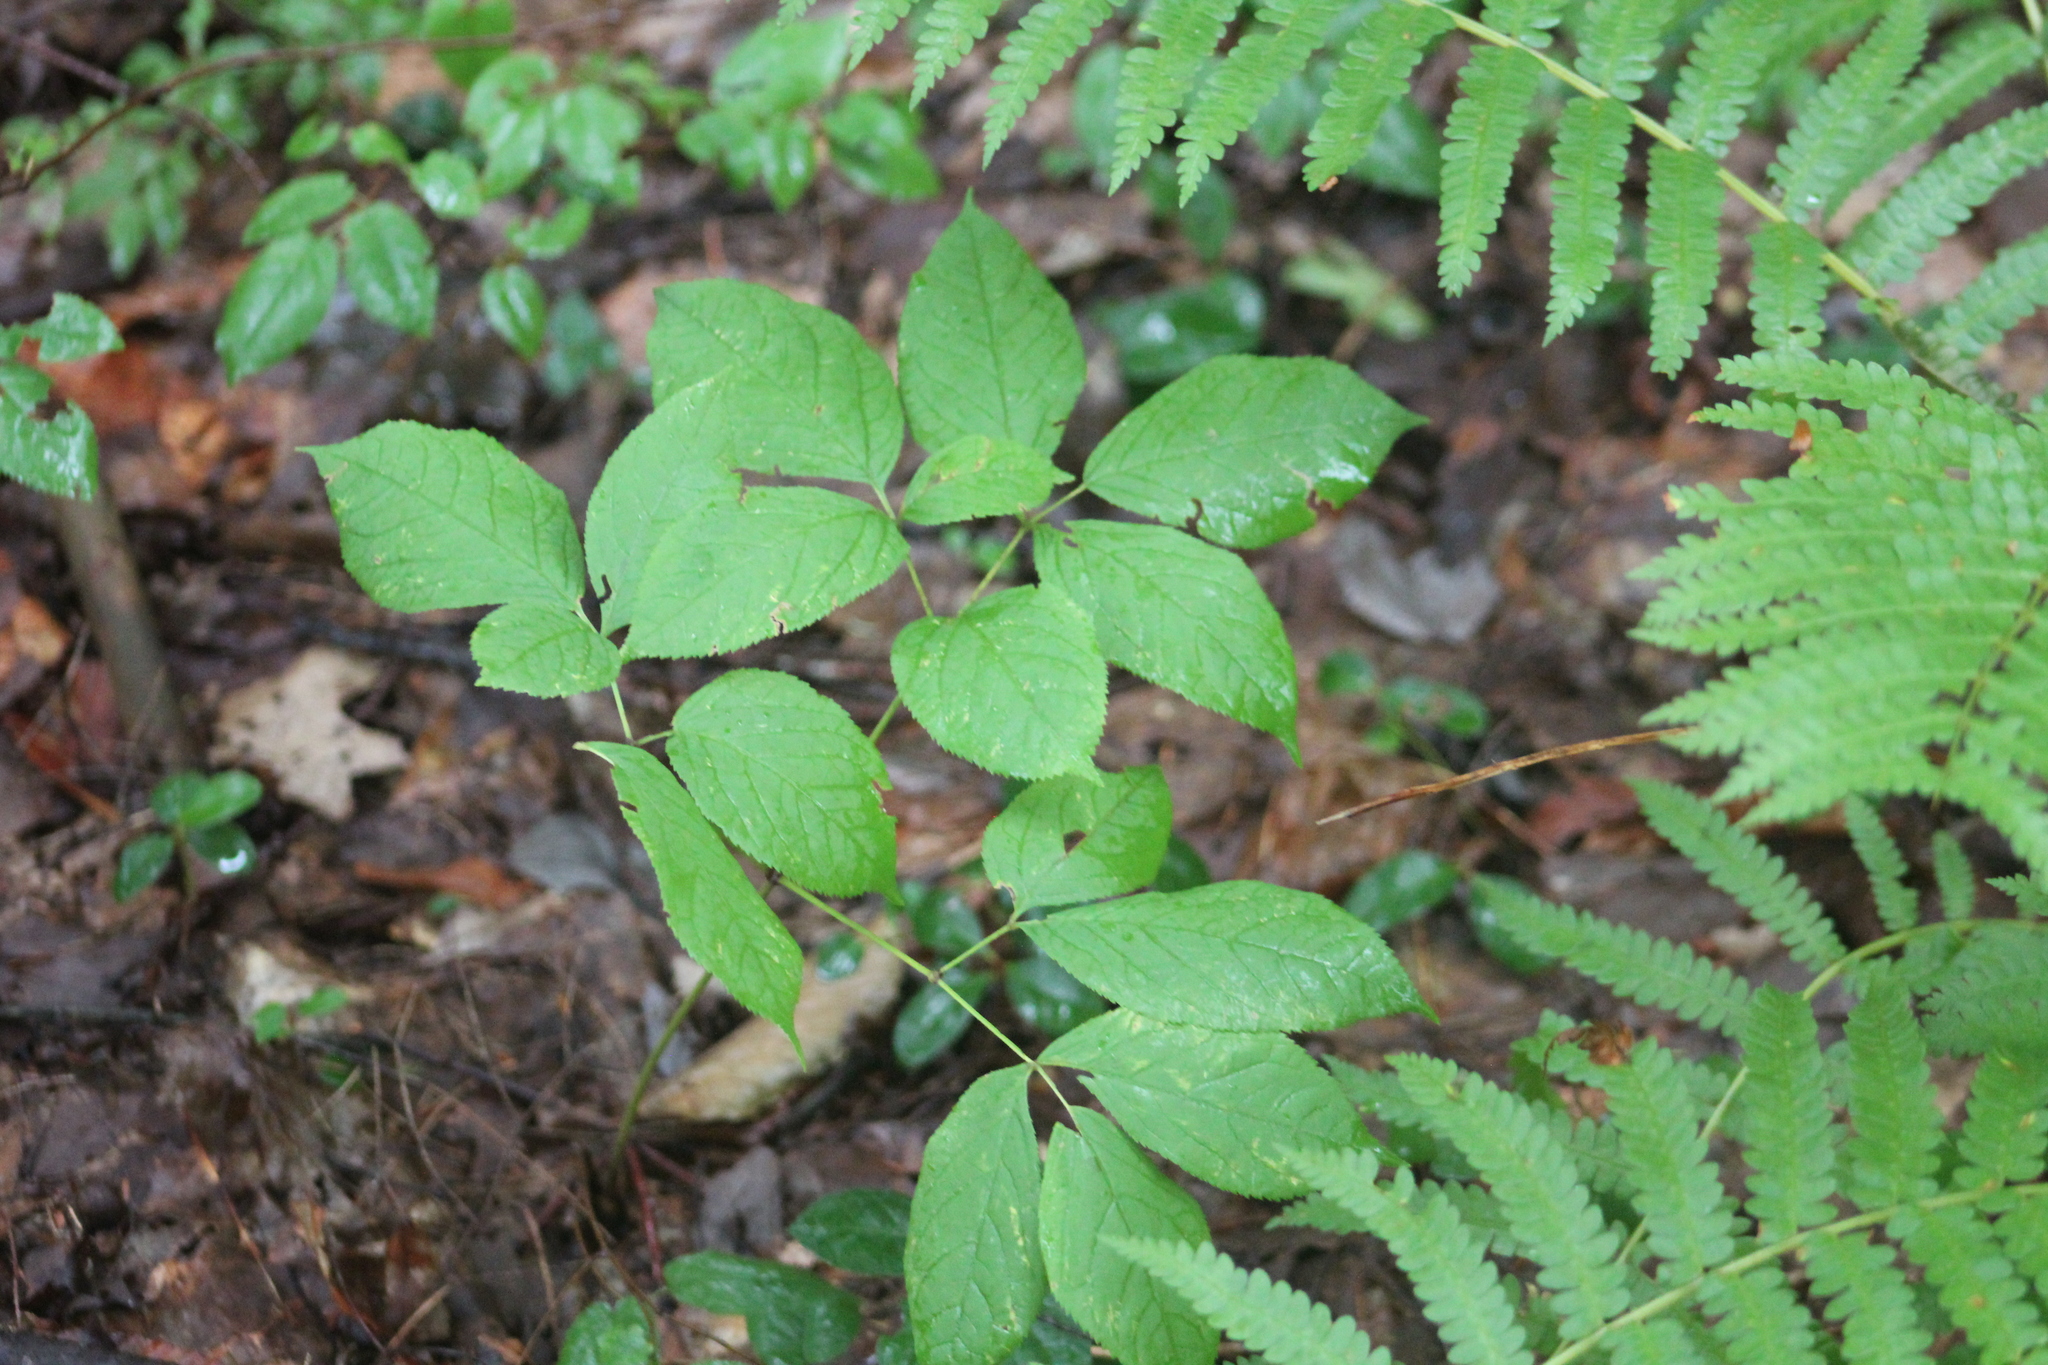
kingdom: Plantae
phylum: Tracheophyta
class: Magnoliopsida
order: Apiales
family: Araliaceae
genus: Aralia
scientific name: Aralia nudicaulis
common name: Wild sarsaparilla
